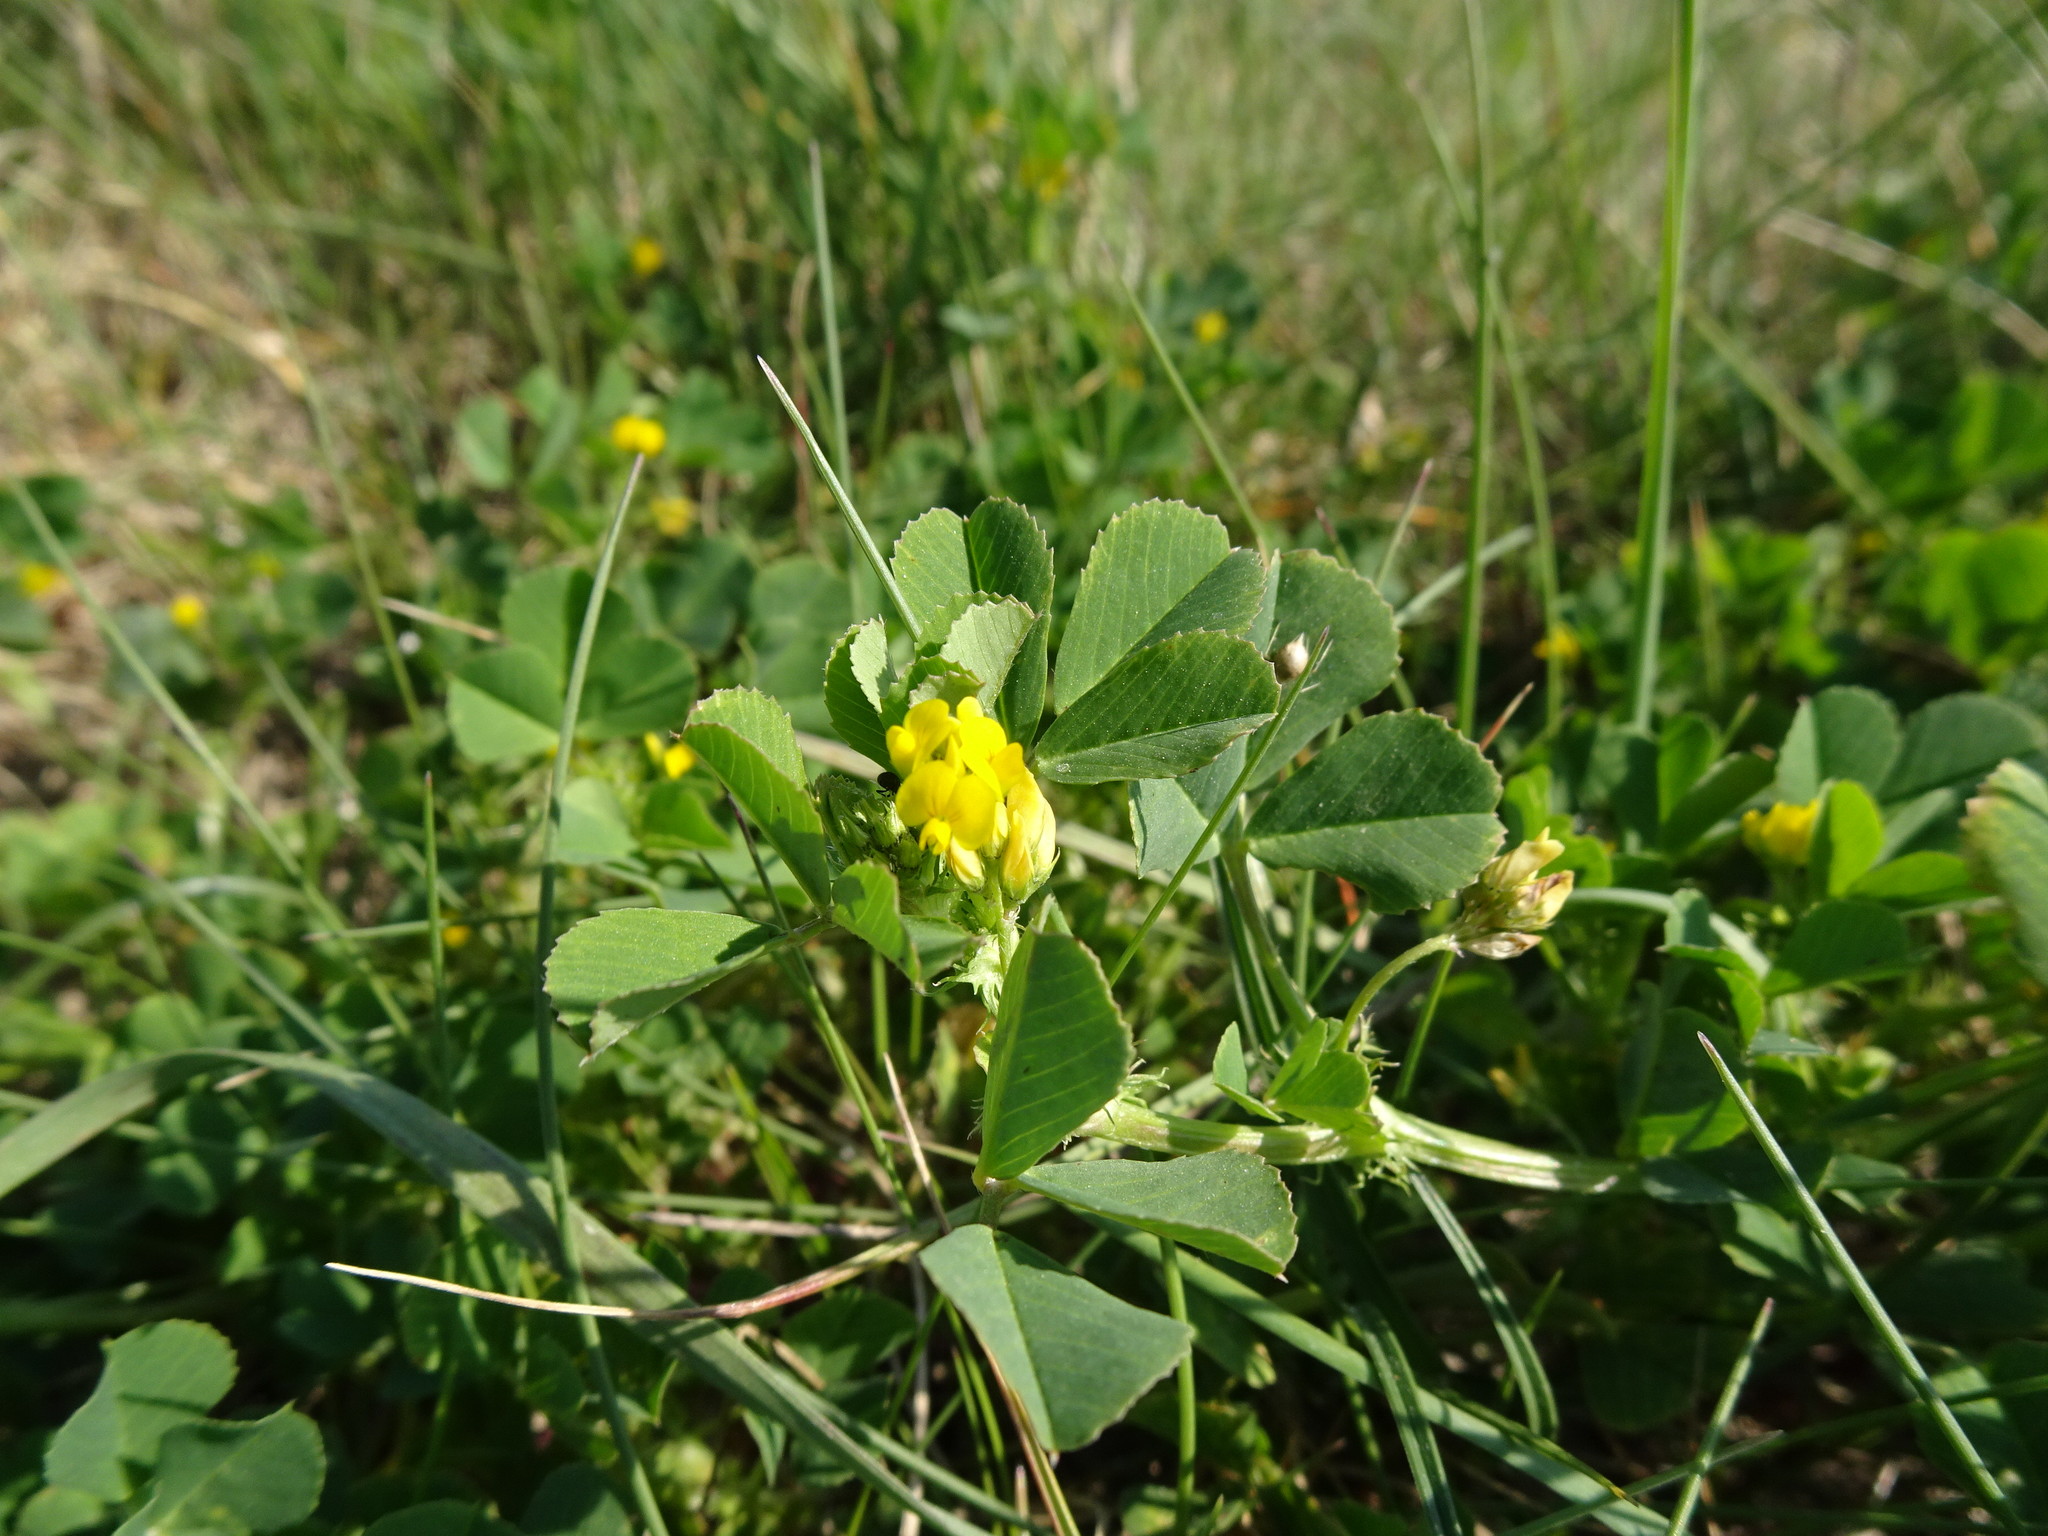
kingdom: Plantae
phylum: Tracheophyta
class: Magnoliopsida
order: Fabales
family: Fabaceae
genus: Medicago
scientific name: Medicago polymorpha
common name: Burclover
